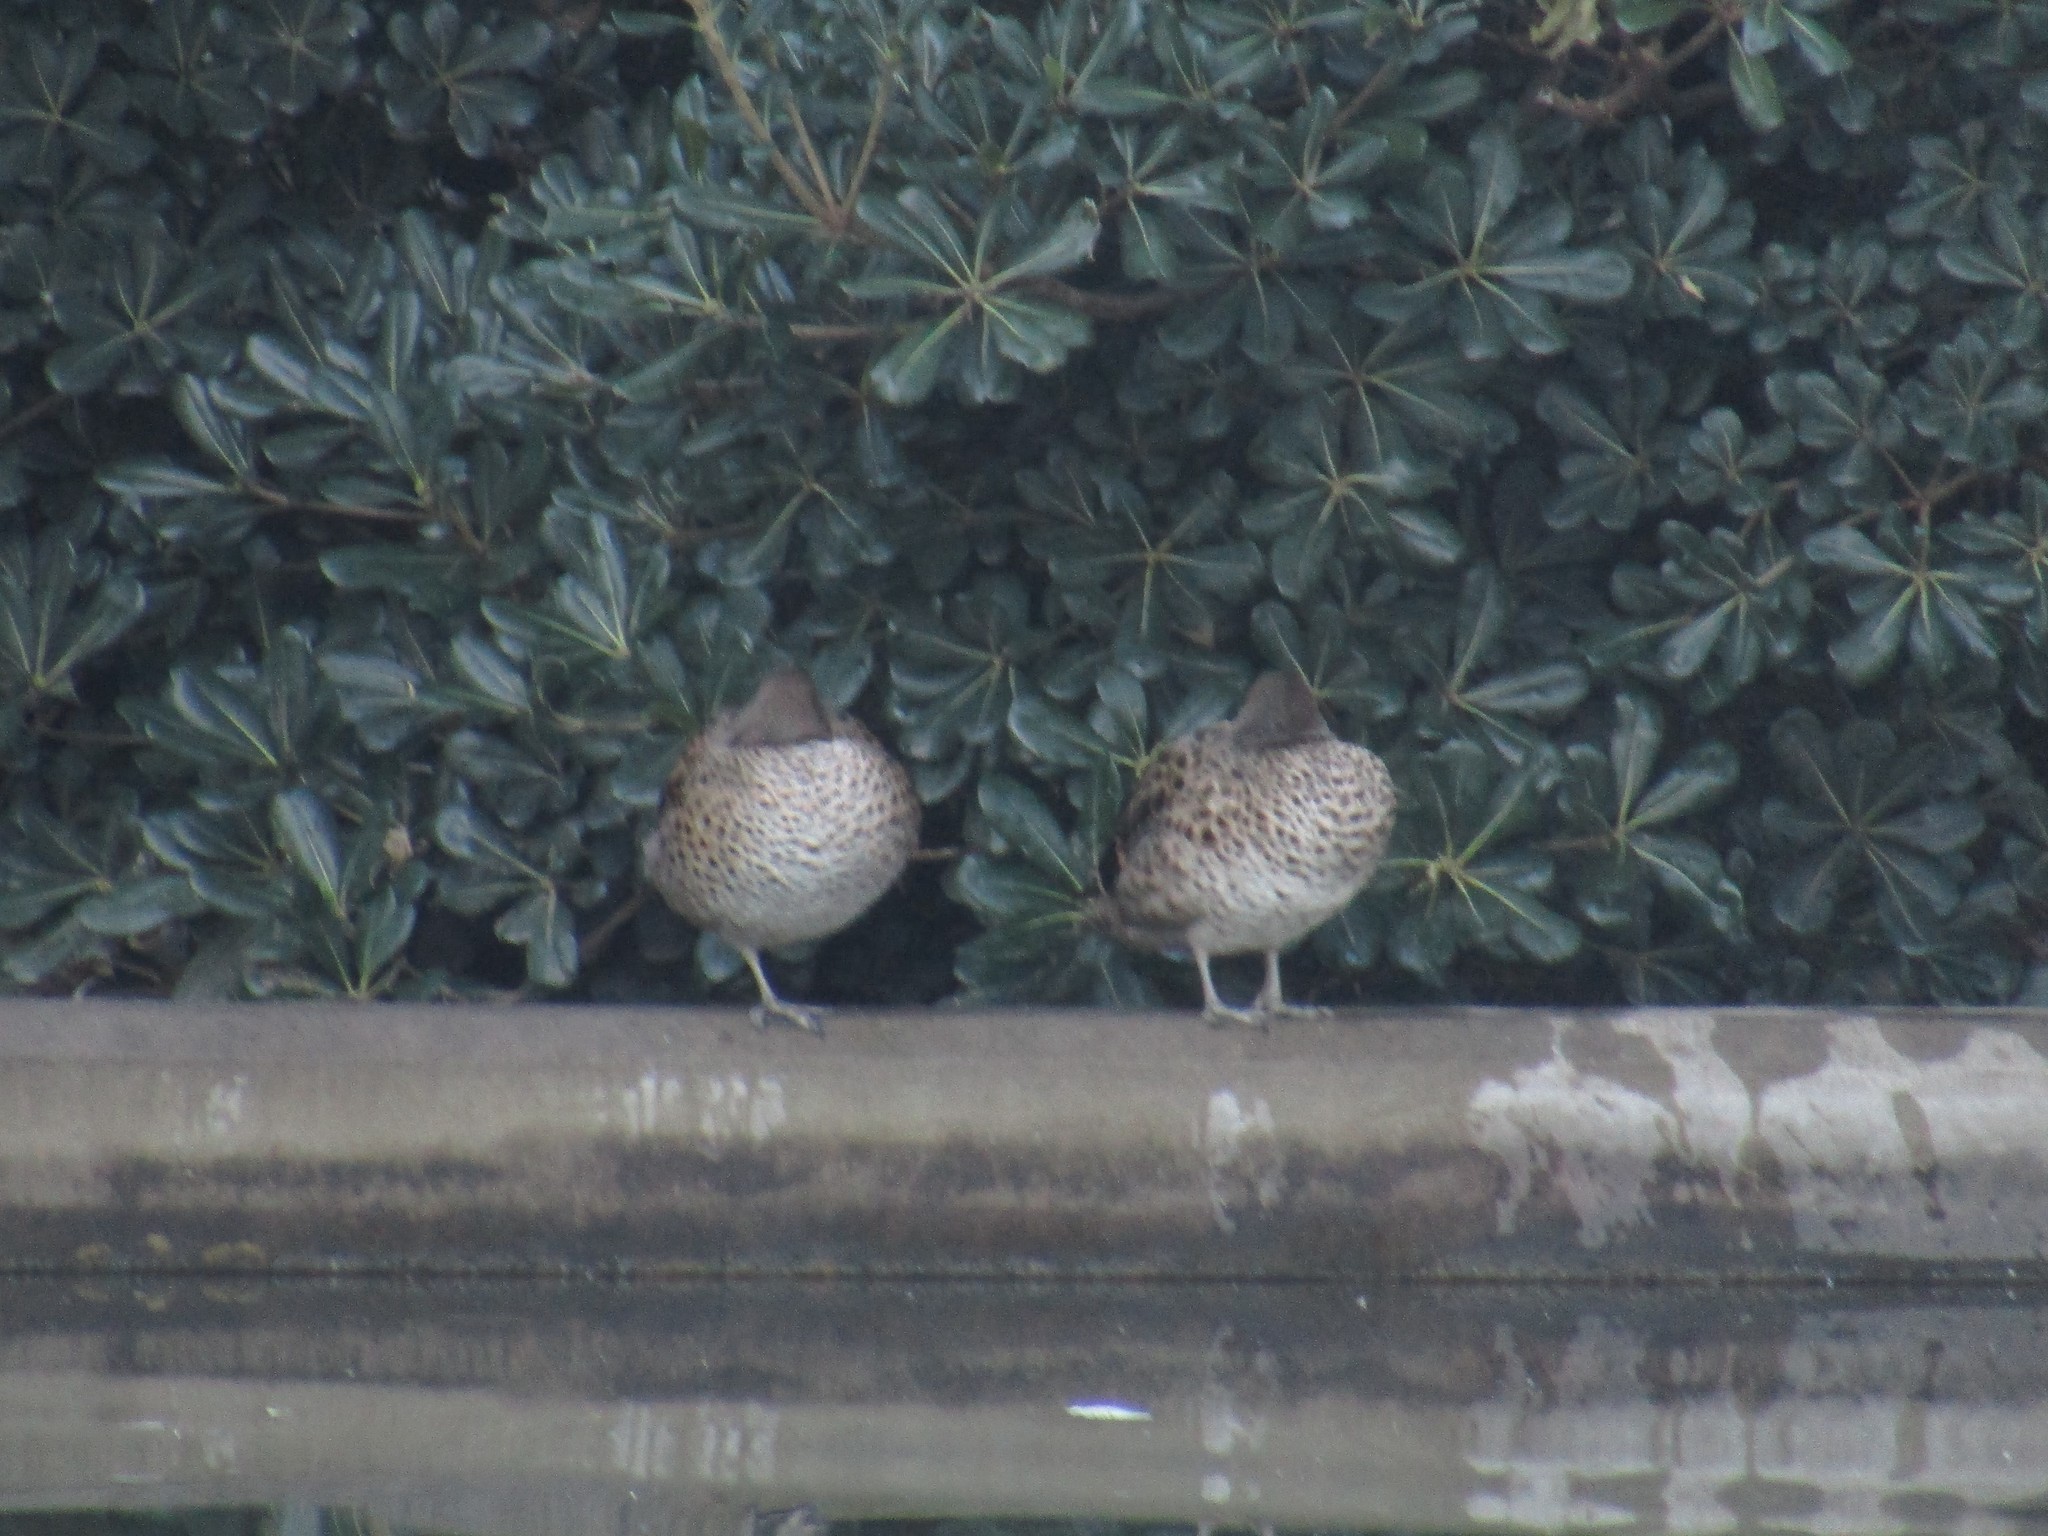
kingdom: Animalia
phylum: Chordata
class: Aves
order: Anseriformes
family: Anatidae
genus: Anas
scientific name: Anas flavirostris
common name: Yellow-billed teal
